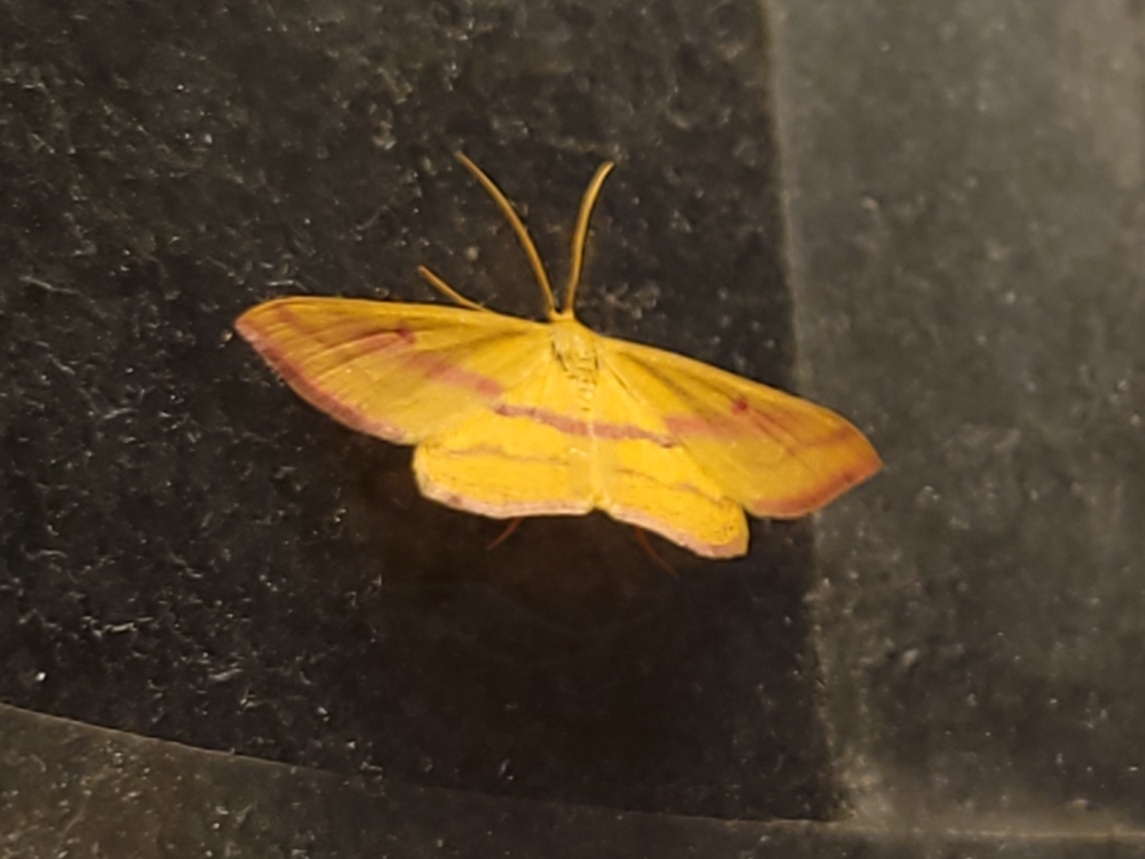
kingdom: Animalia
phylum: Arthropoda
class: Insecta
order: Lepidoptera
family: Geometridae
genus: Haematopis
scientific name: Haematopis grataria
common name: Chickweed geometer
